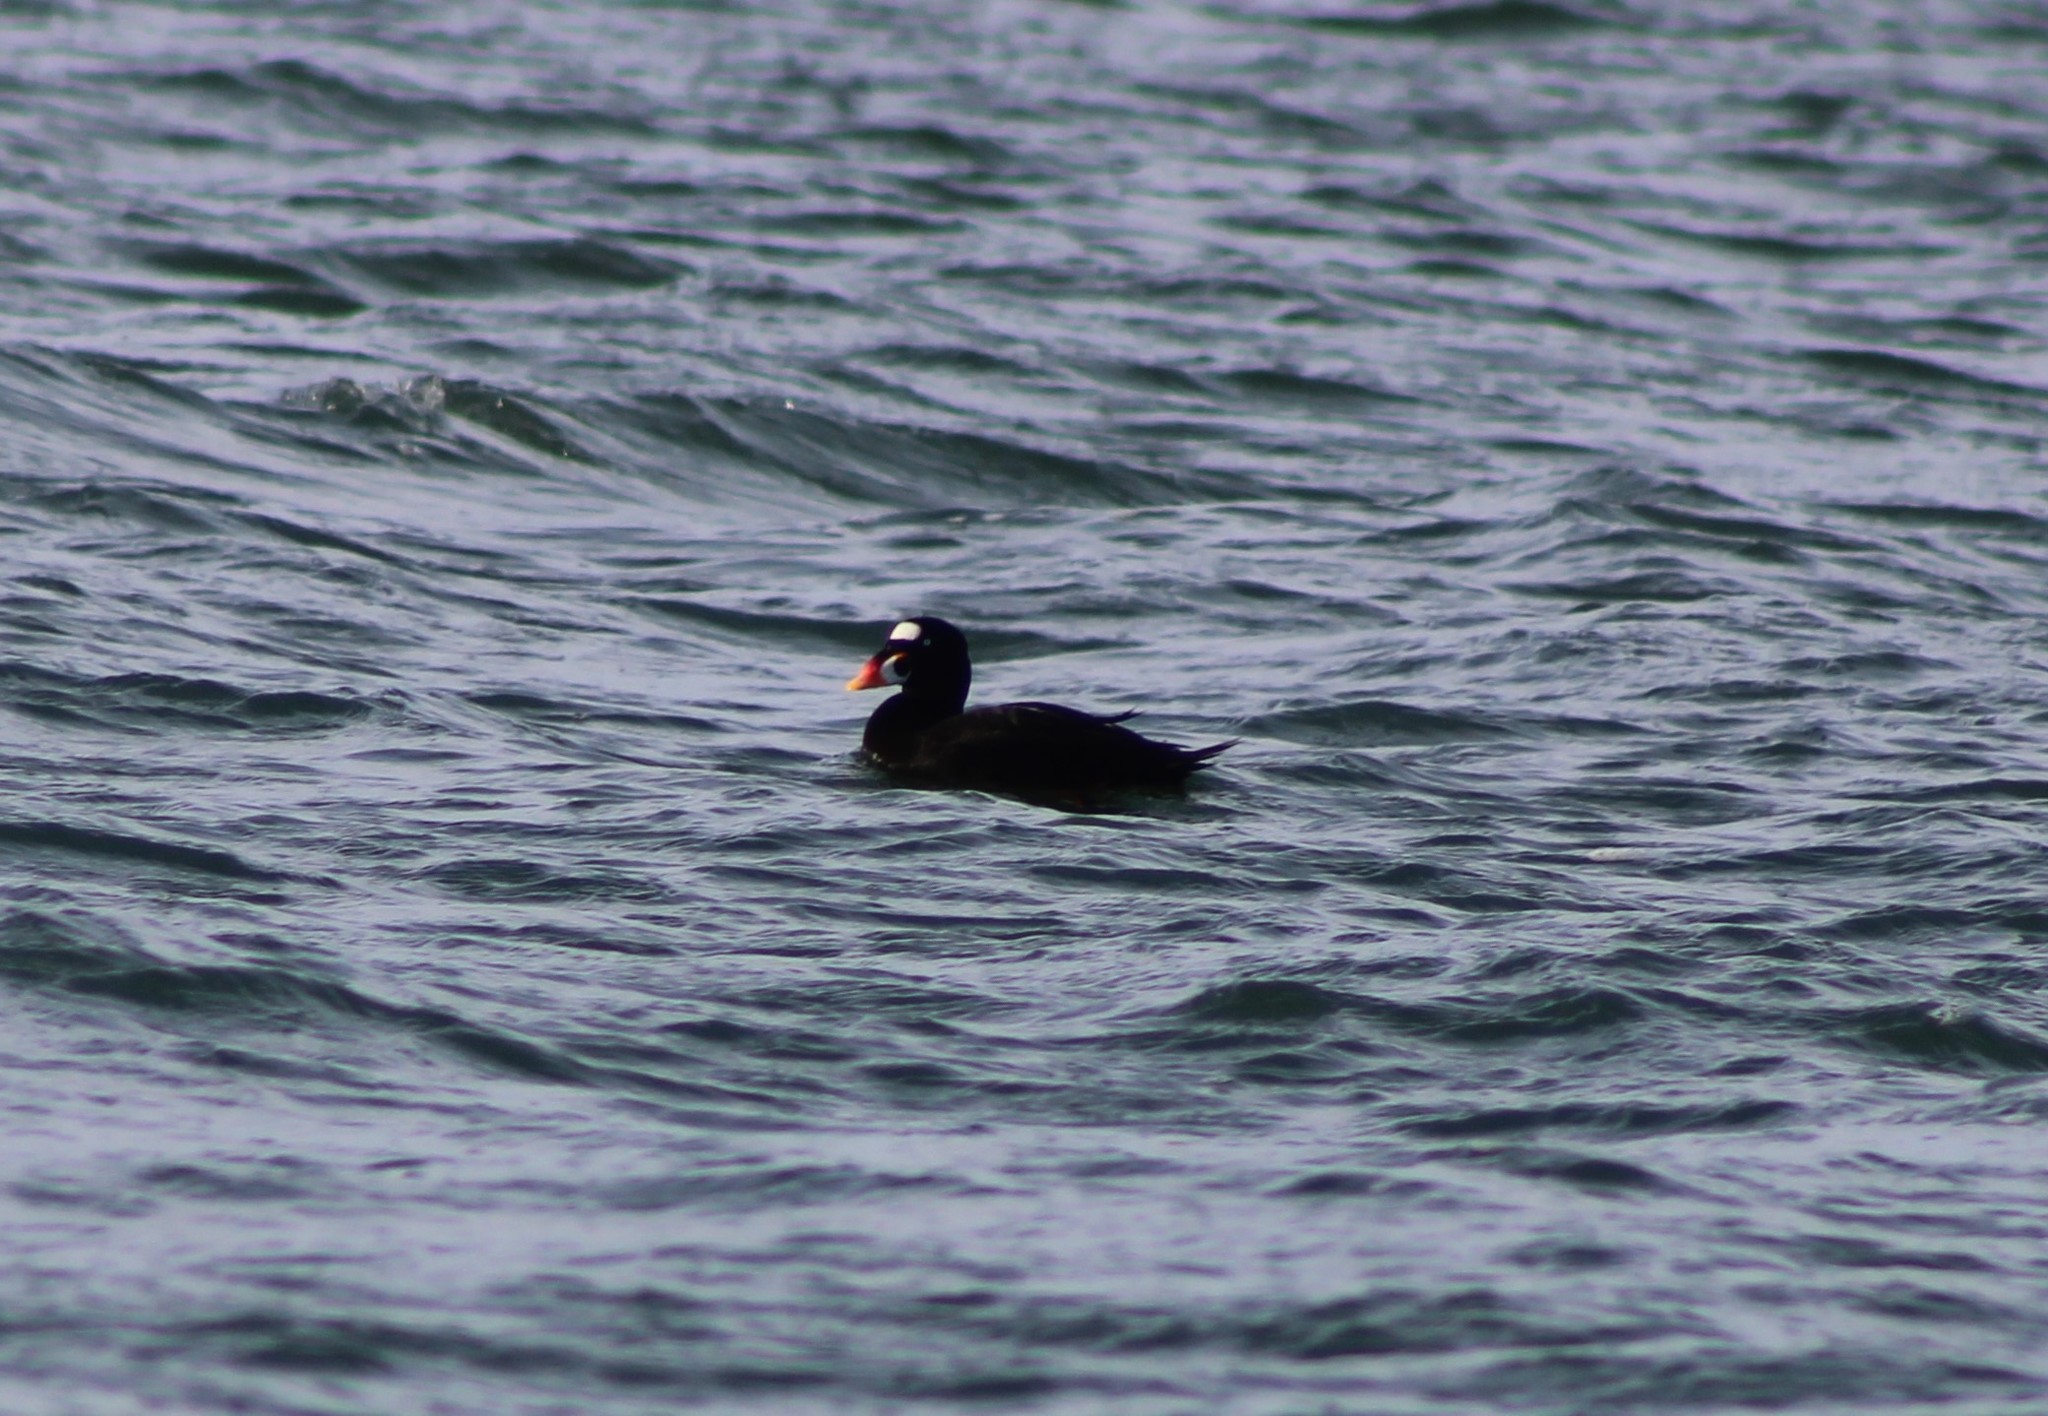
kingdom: Animalia
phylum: Chordata
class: Aves
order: Anseriformes
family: Anatidae
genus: Melanitta
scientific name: Melanitta perspicillata
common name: Surf scoter
